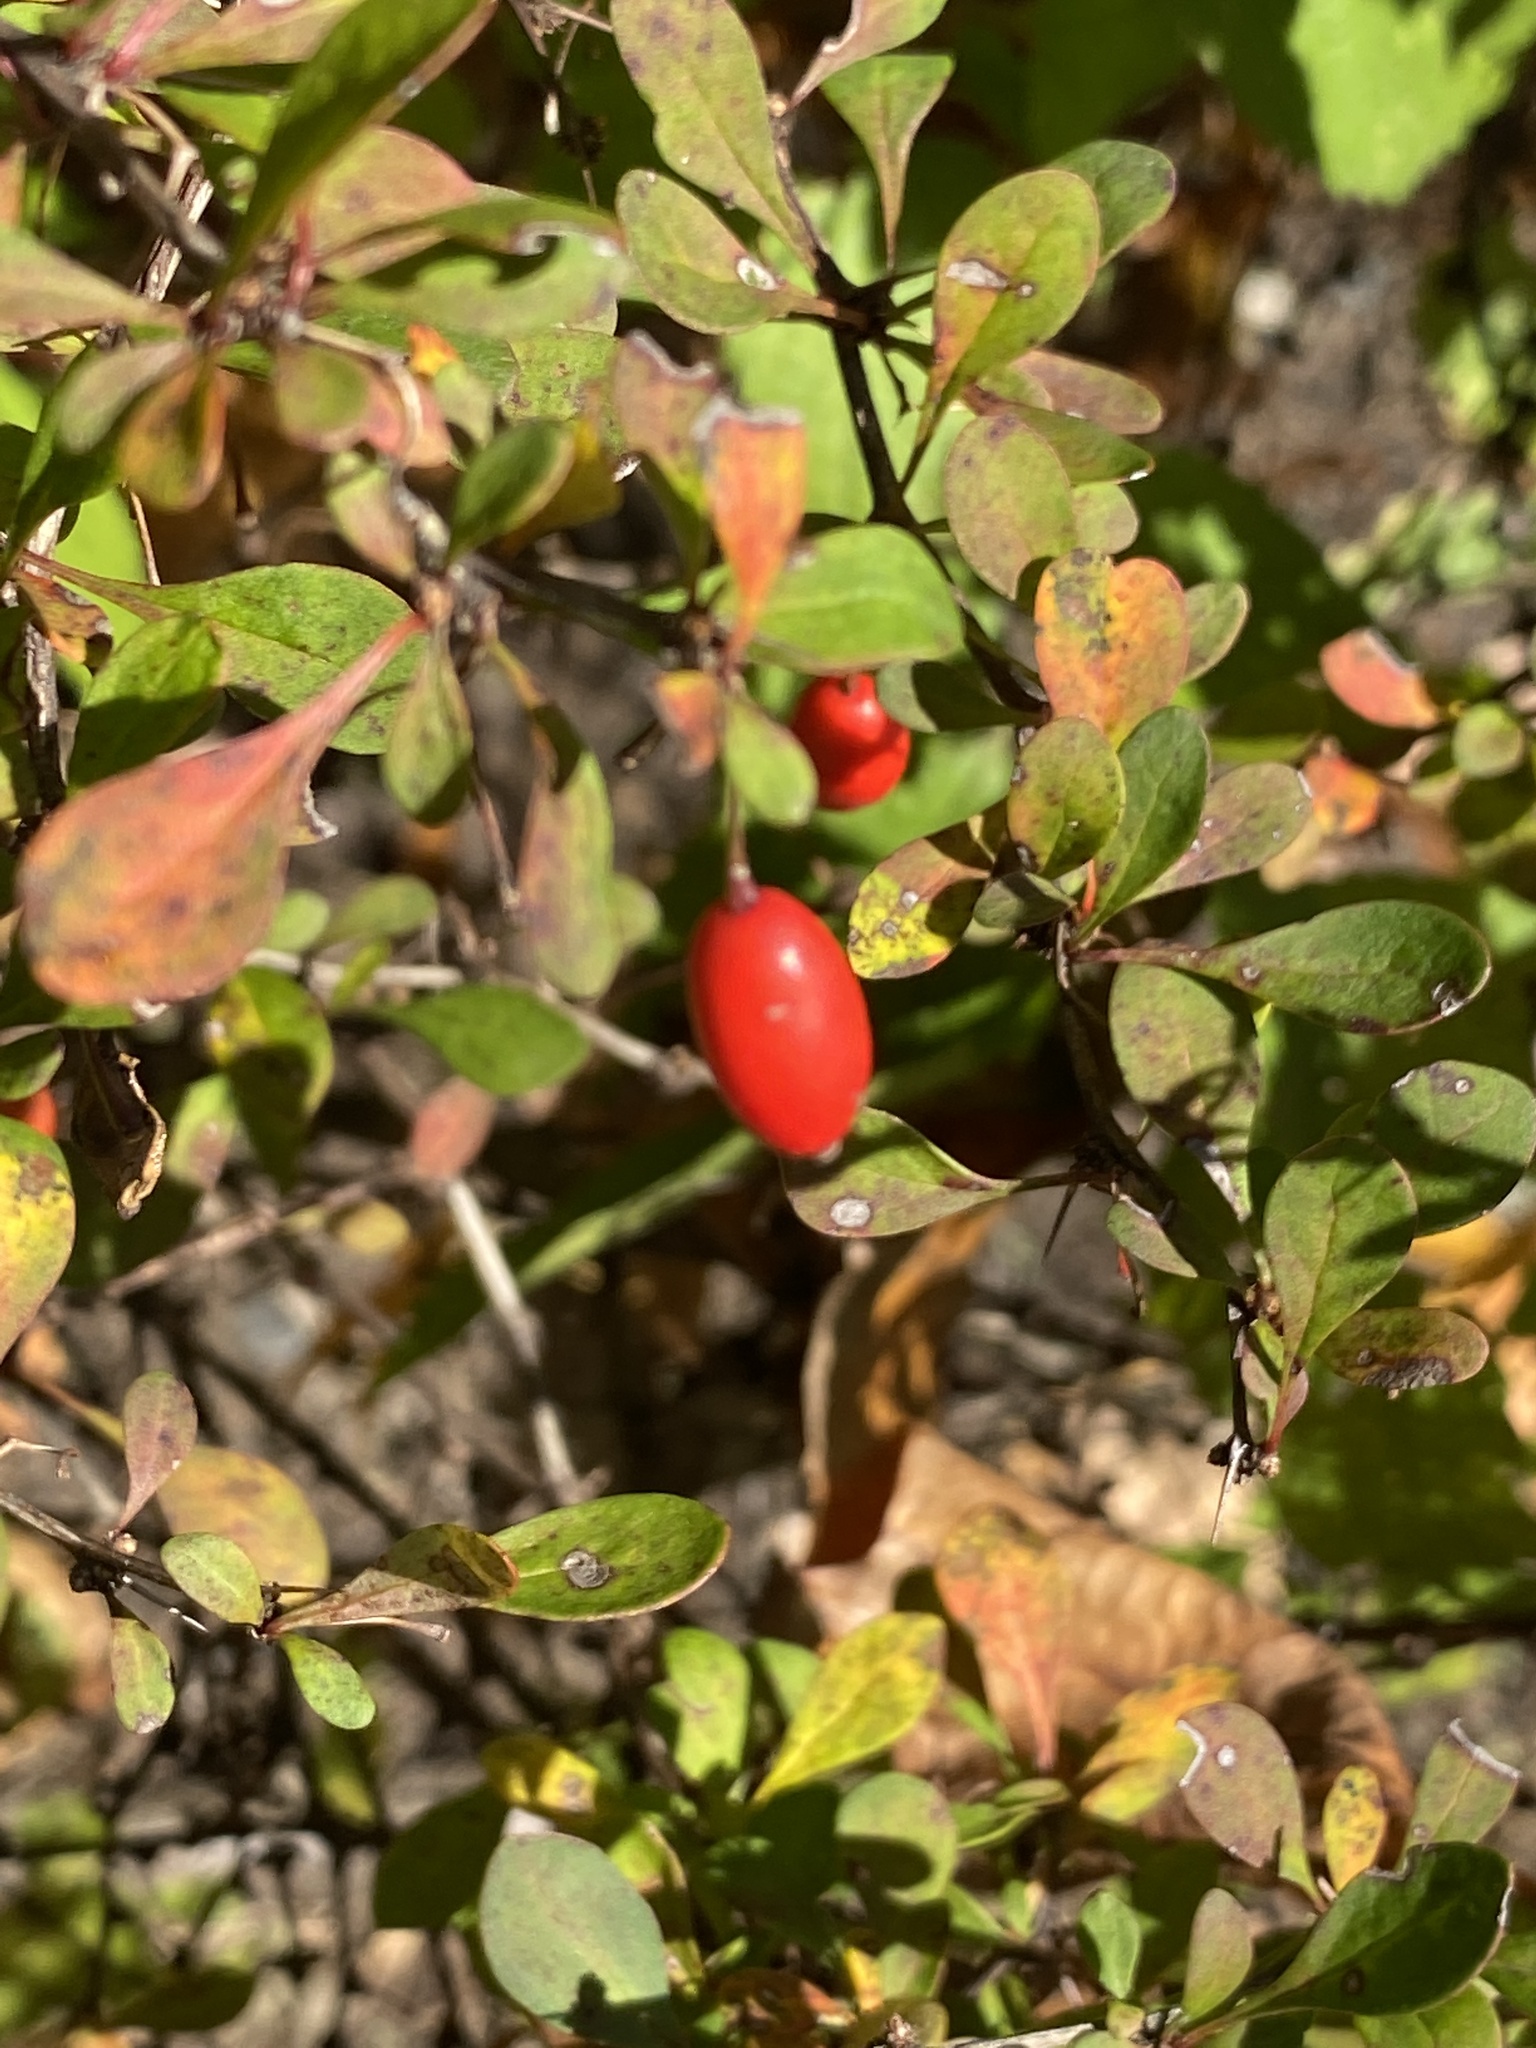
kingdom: Plantae
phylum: Tracheophyta
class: Magnoliopsida
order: Ranunculales
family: Berberidaceae
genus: Berberis
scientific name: Berberis thunbergii
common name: Japanese barberry
